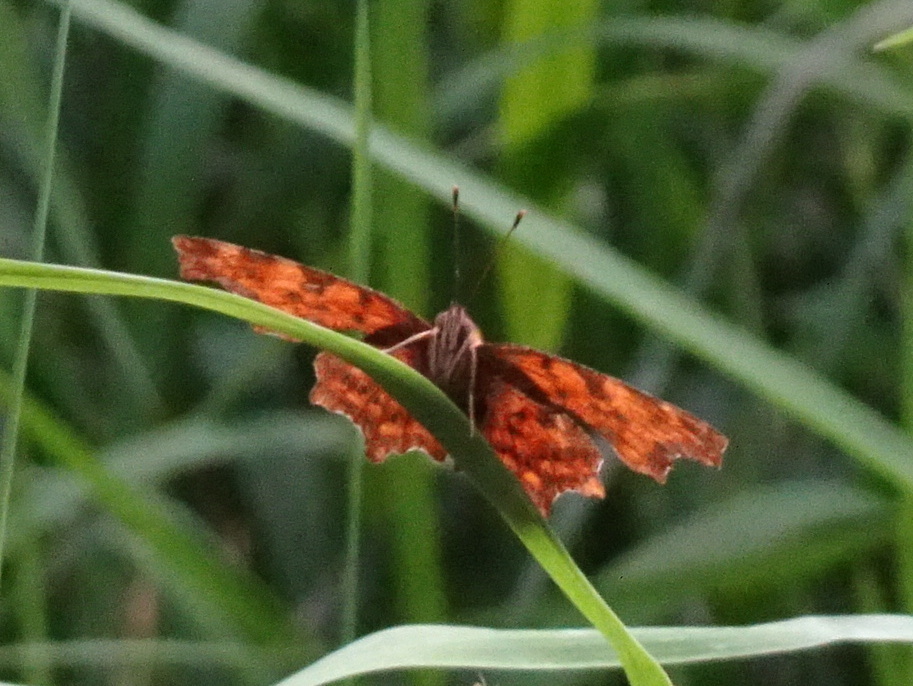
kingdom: Animalia
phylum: Arthropoda
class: Insecta
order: Lepidoptera
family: Nymphalidae
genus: Polygonia
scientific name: Polygonia c-album
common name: Comma
